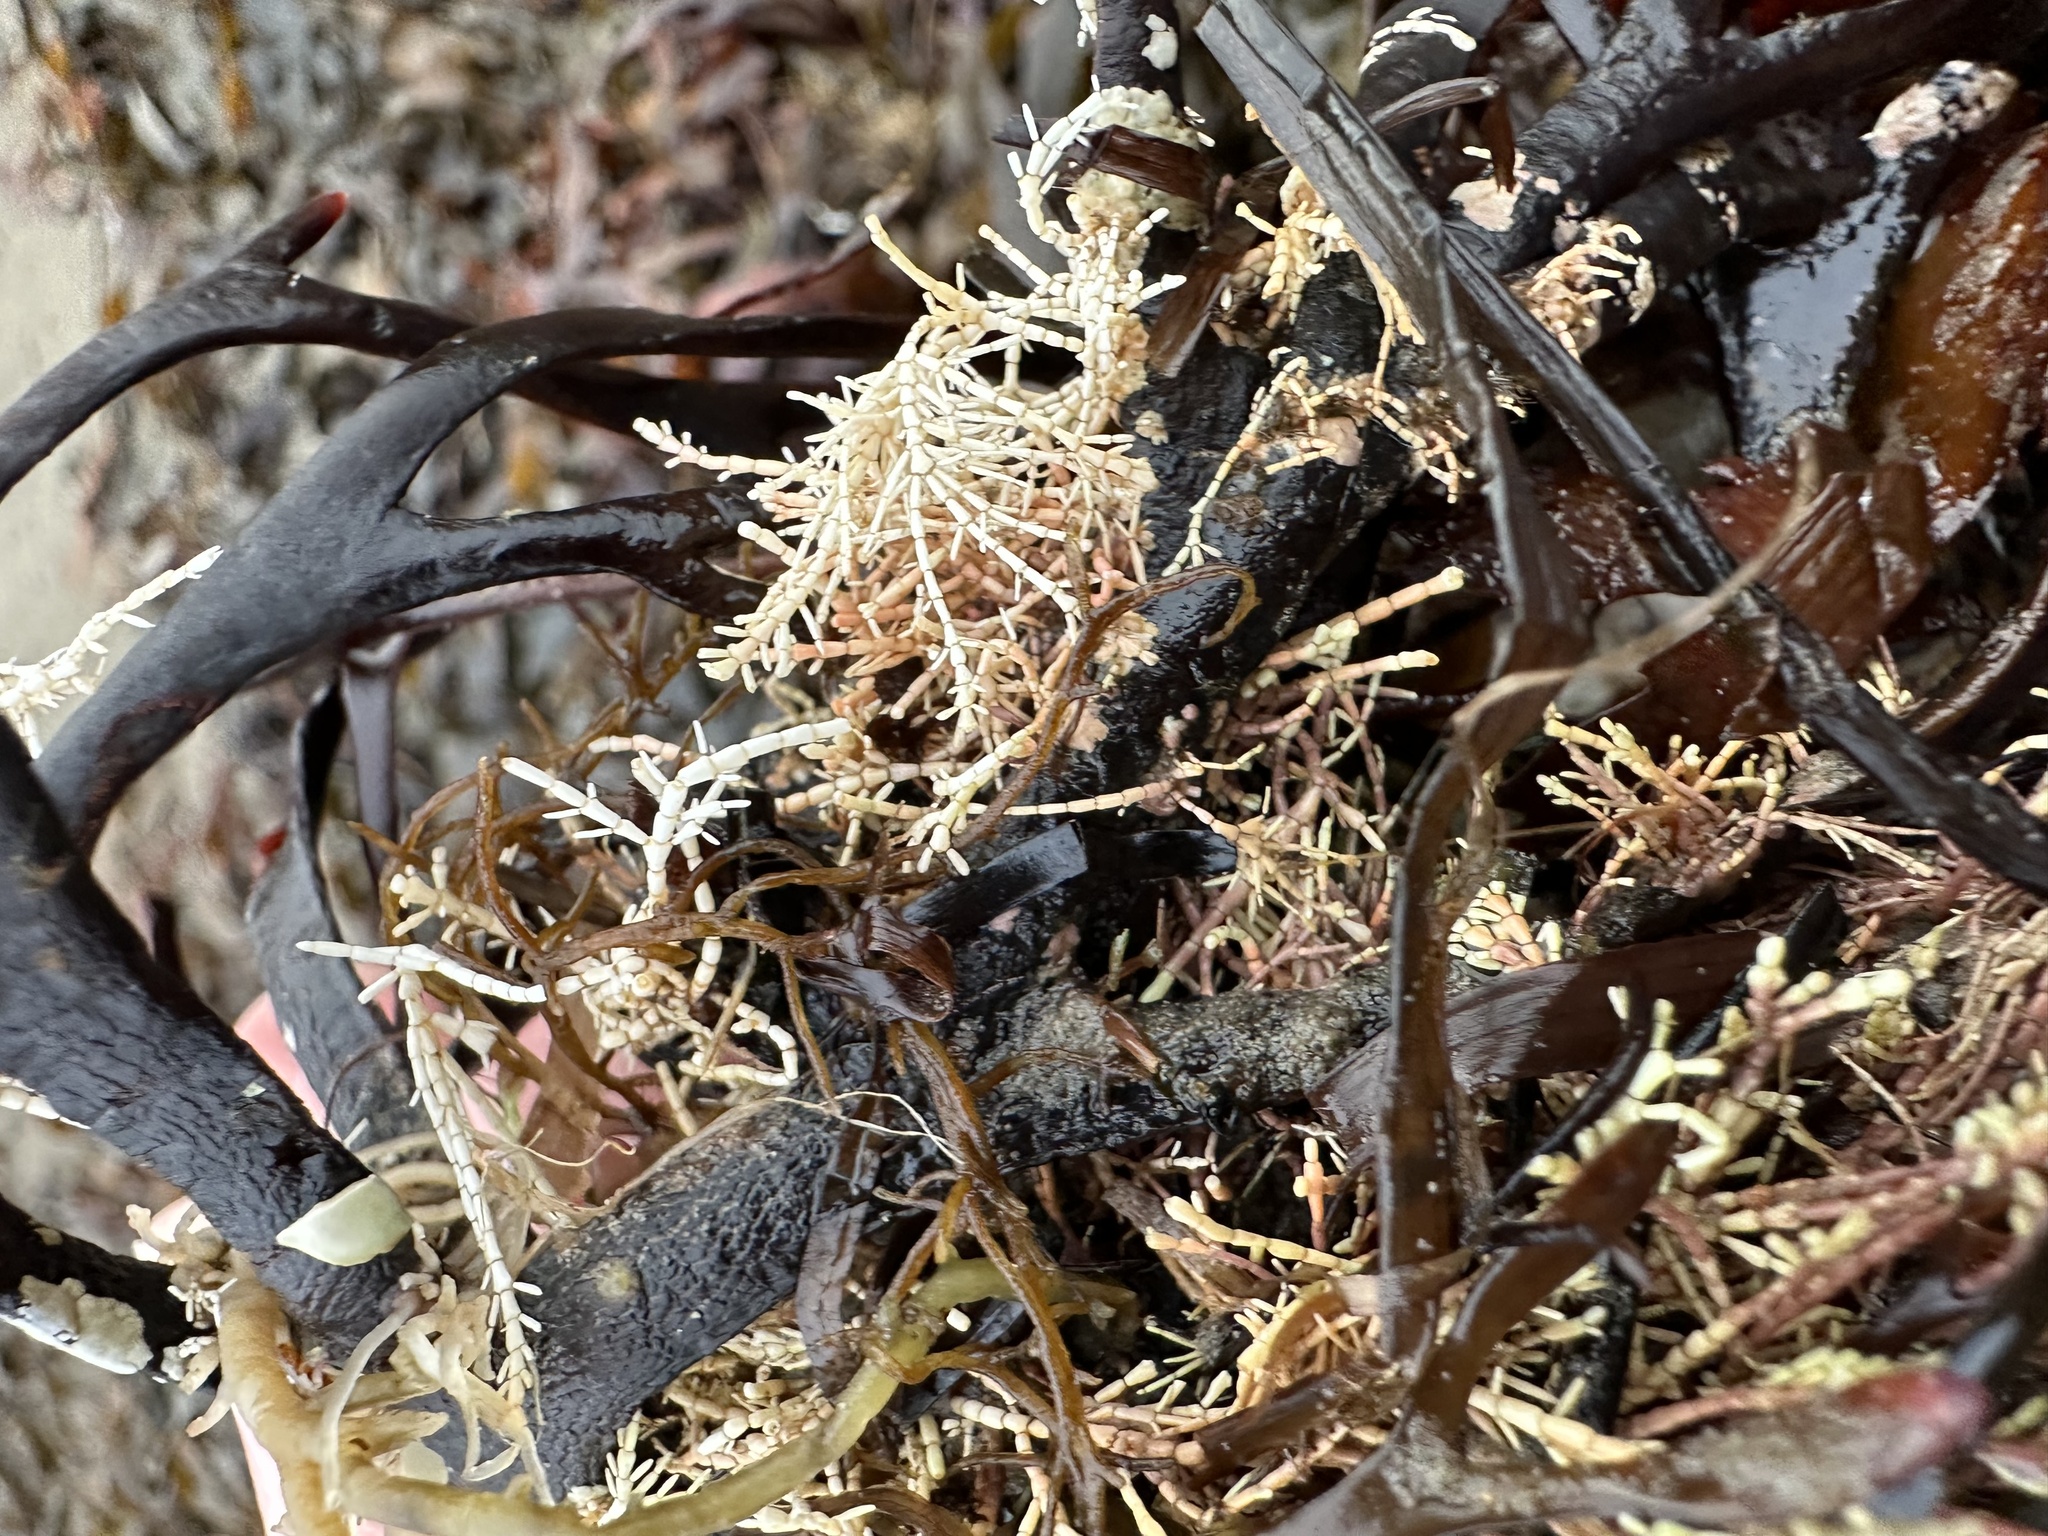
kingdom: Plantae
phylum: Rhodophyta
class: Florideophyceae
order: Corallinales
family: Corallinaceae
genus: Corallina
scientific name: Corallina officinalis
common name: Coral weed
